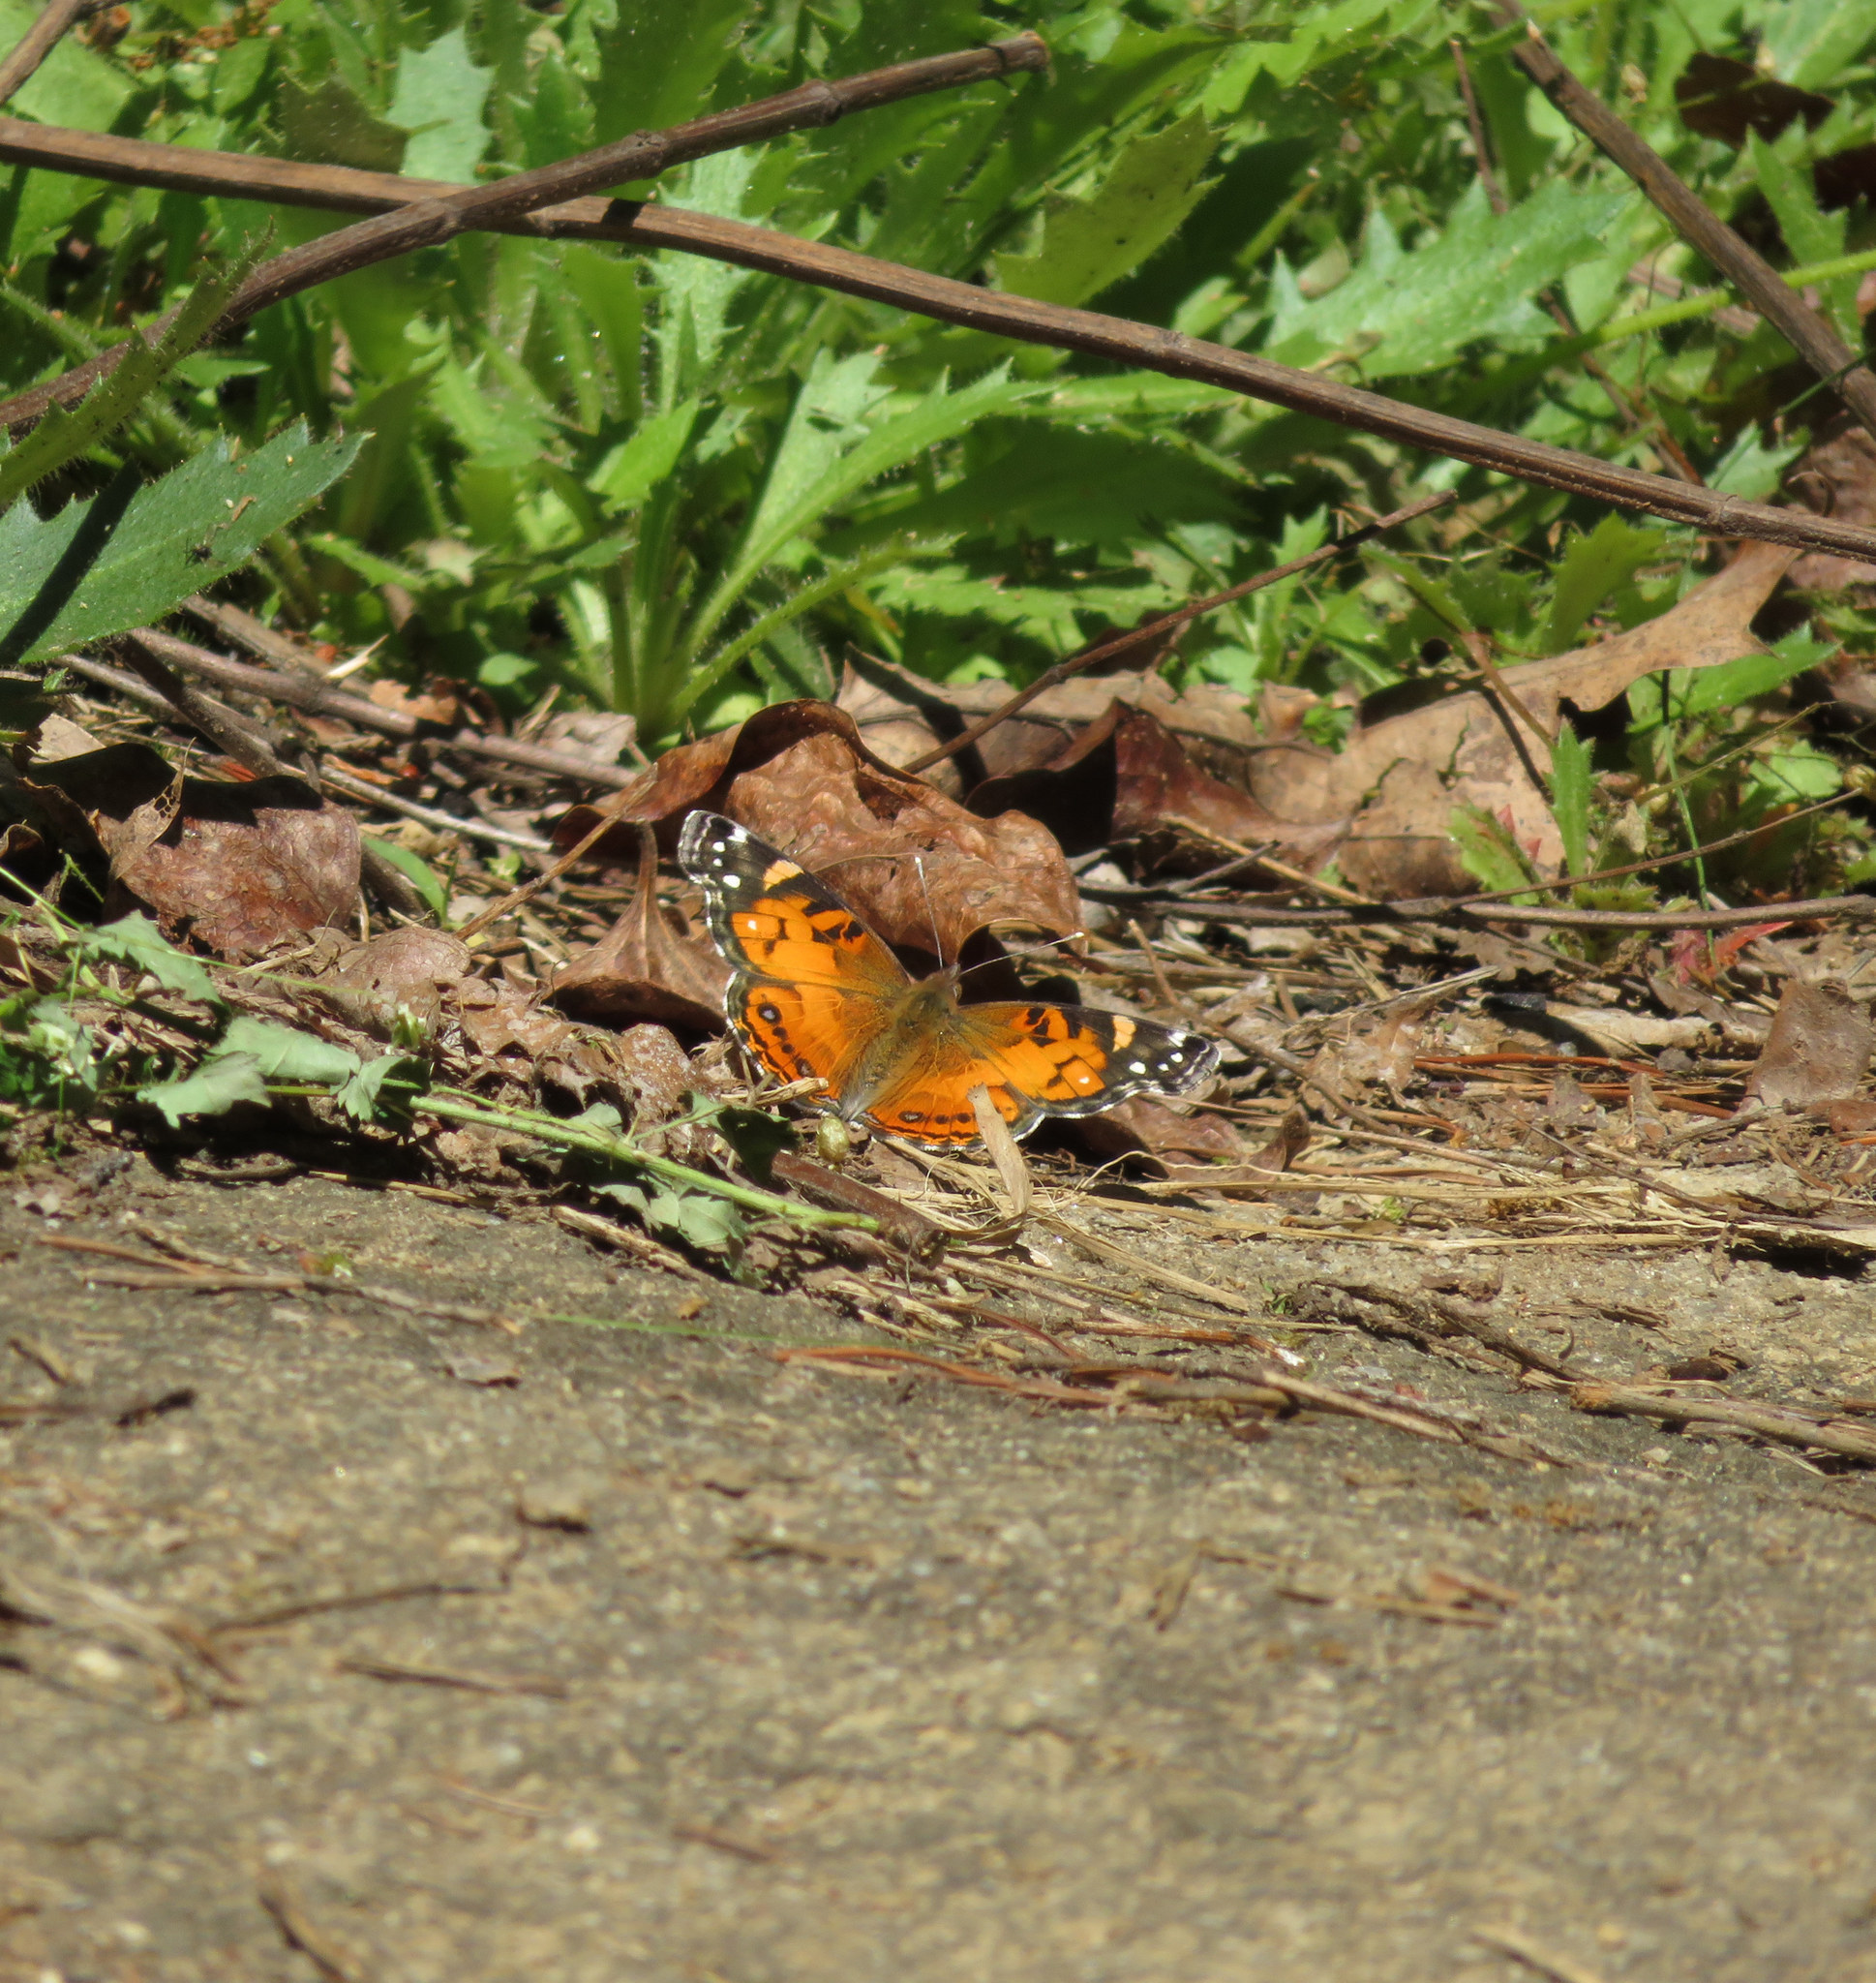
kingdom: Animalia
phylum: Arthropoda
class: Insecta
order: Lepidoptera
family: Nymphalidae
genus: Vanessa
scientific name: Vanessa virginiensis
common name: American lady
